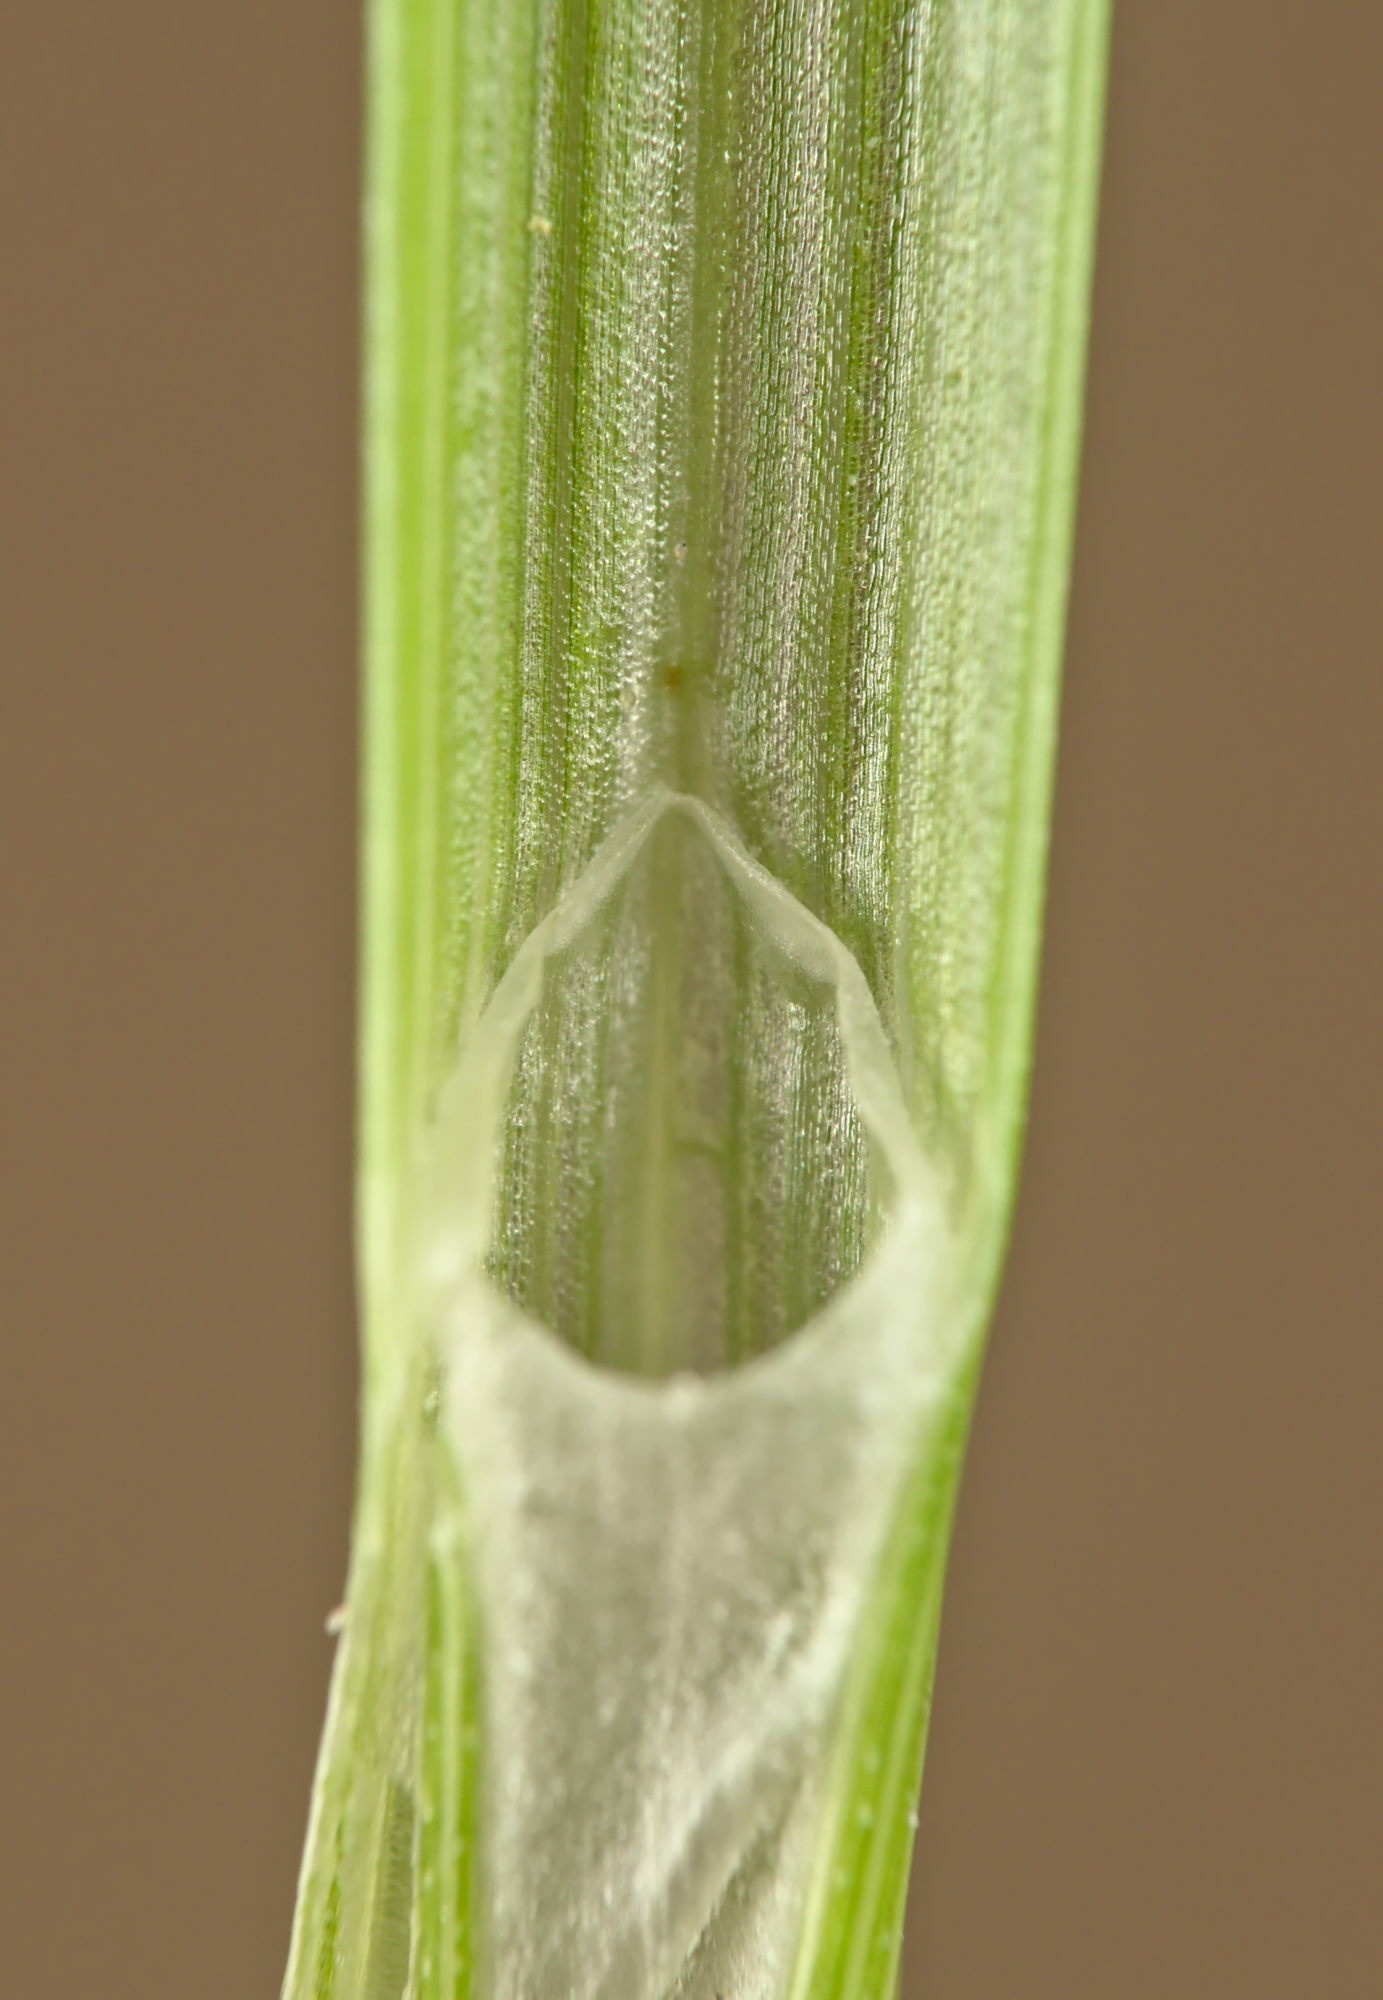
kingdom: Plantae
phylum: Tracheophyta
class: Liliopsida
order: Poales
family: Cyperaceae
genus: Carex
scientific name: Carex leersii
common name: Leers' sedge
